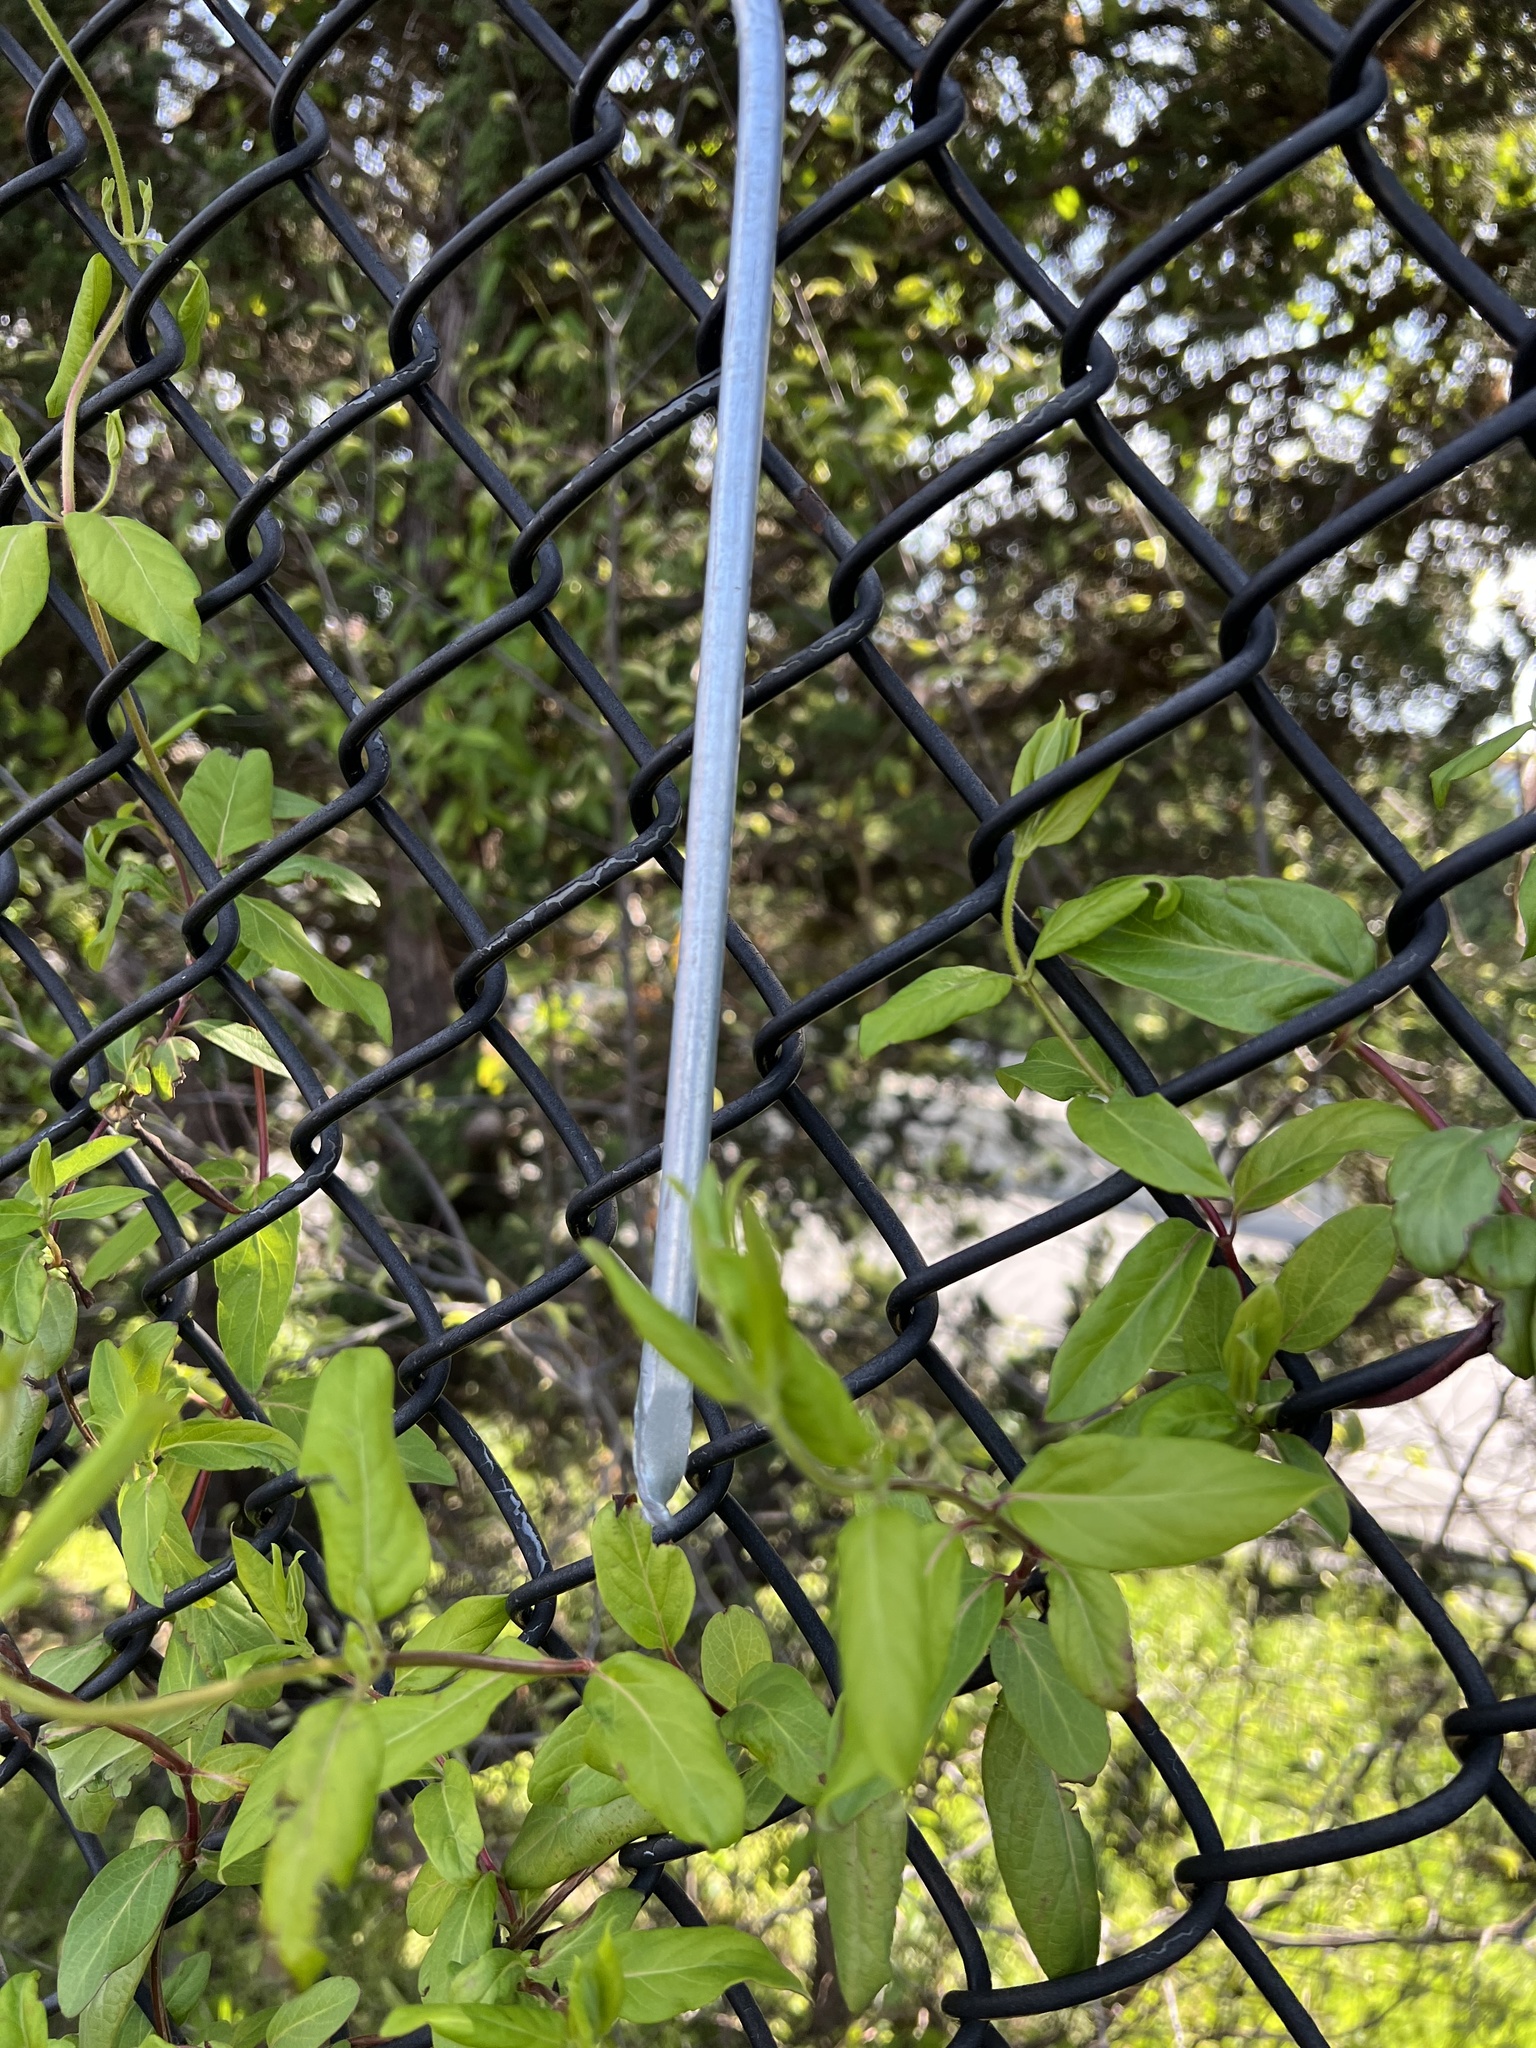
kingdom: Plantae
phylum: Tracheophyta
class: Magnoliopsida
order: Dipsacales
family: Caprifoliaceae
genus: Lonicera
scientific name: Lonicera japonica
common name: Japanese honeysuckle
